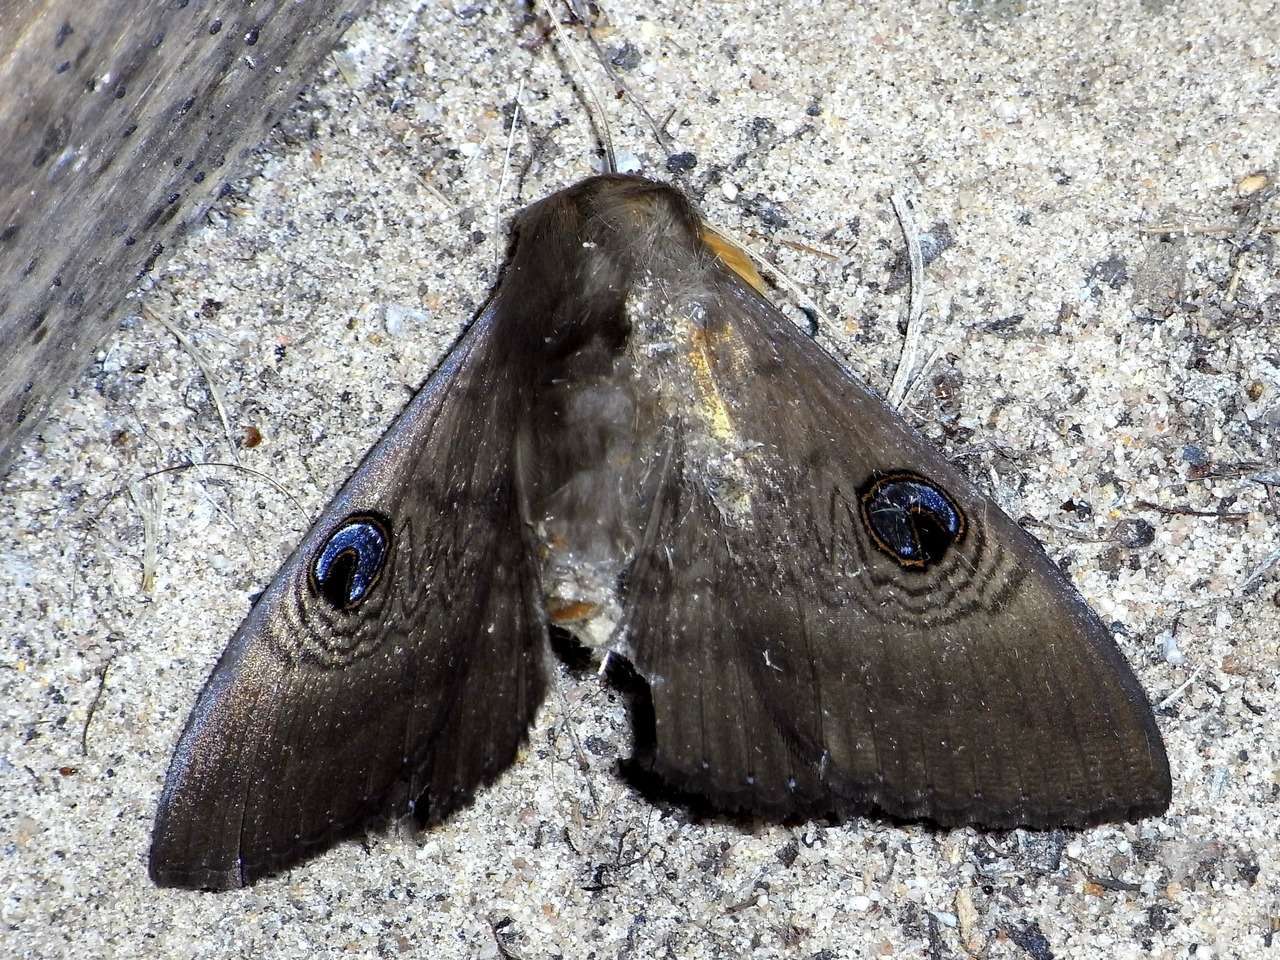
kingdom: Animalia
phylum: Arthropoda
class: Insecta
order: Lepidoptera
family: Erebidae
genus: Dasypodia
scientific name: Dasypodia selenophora
